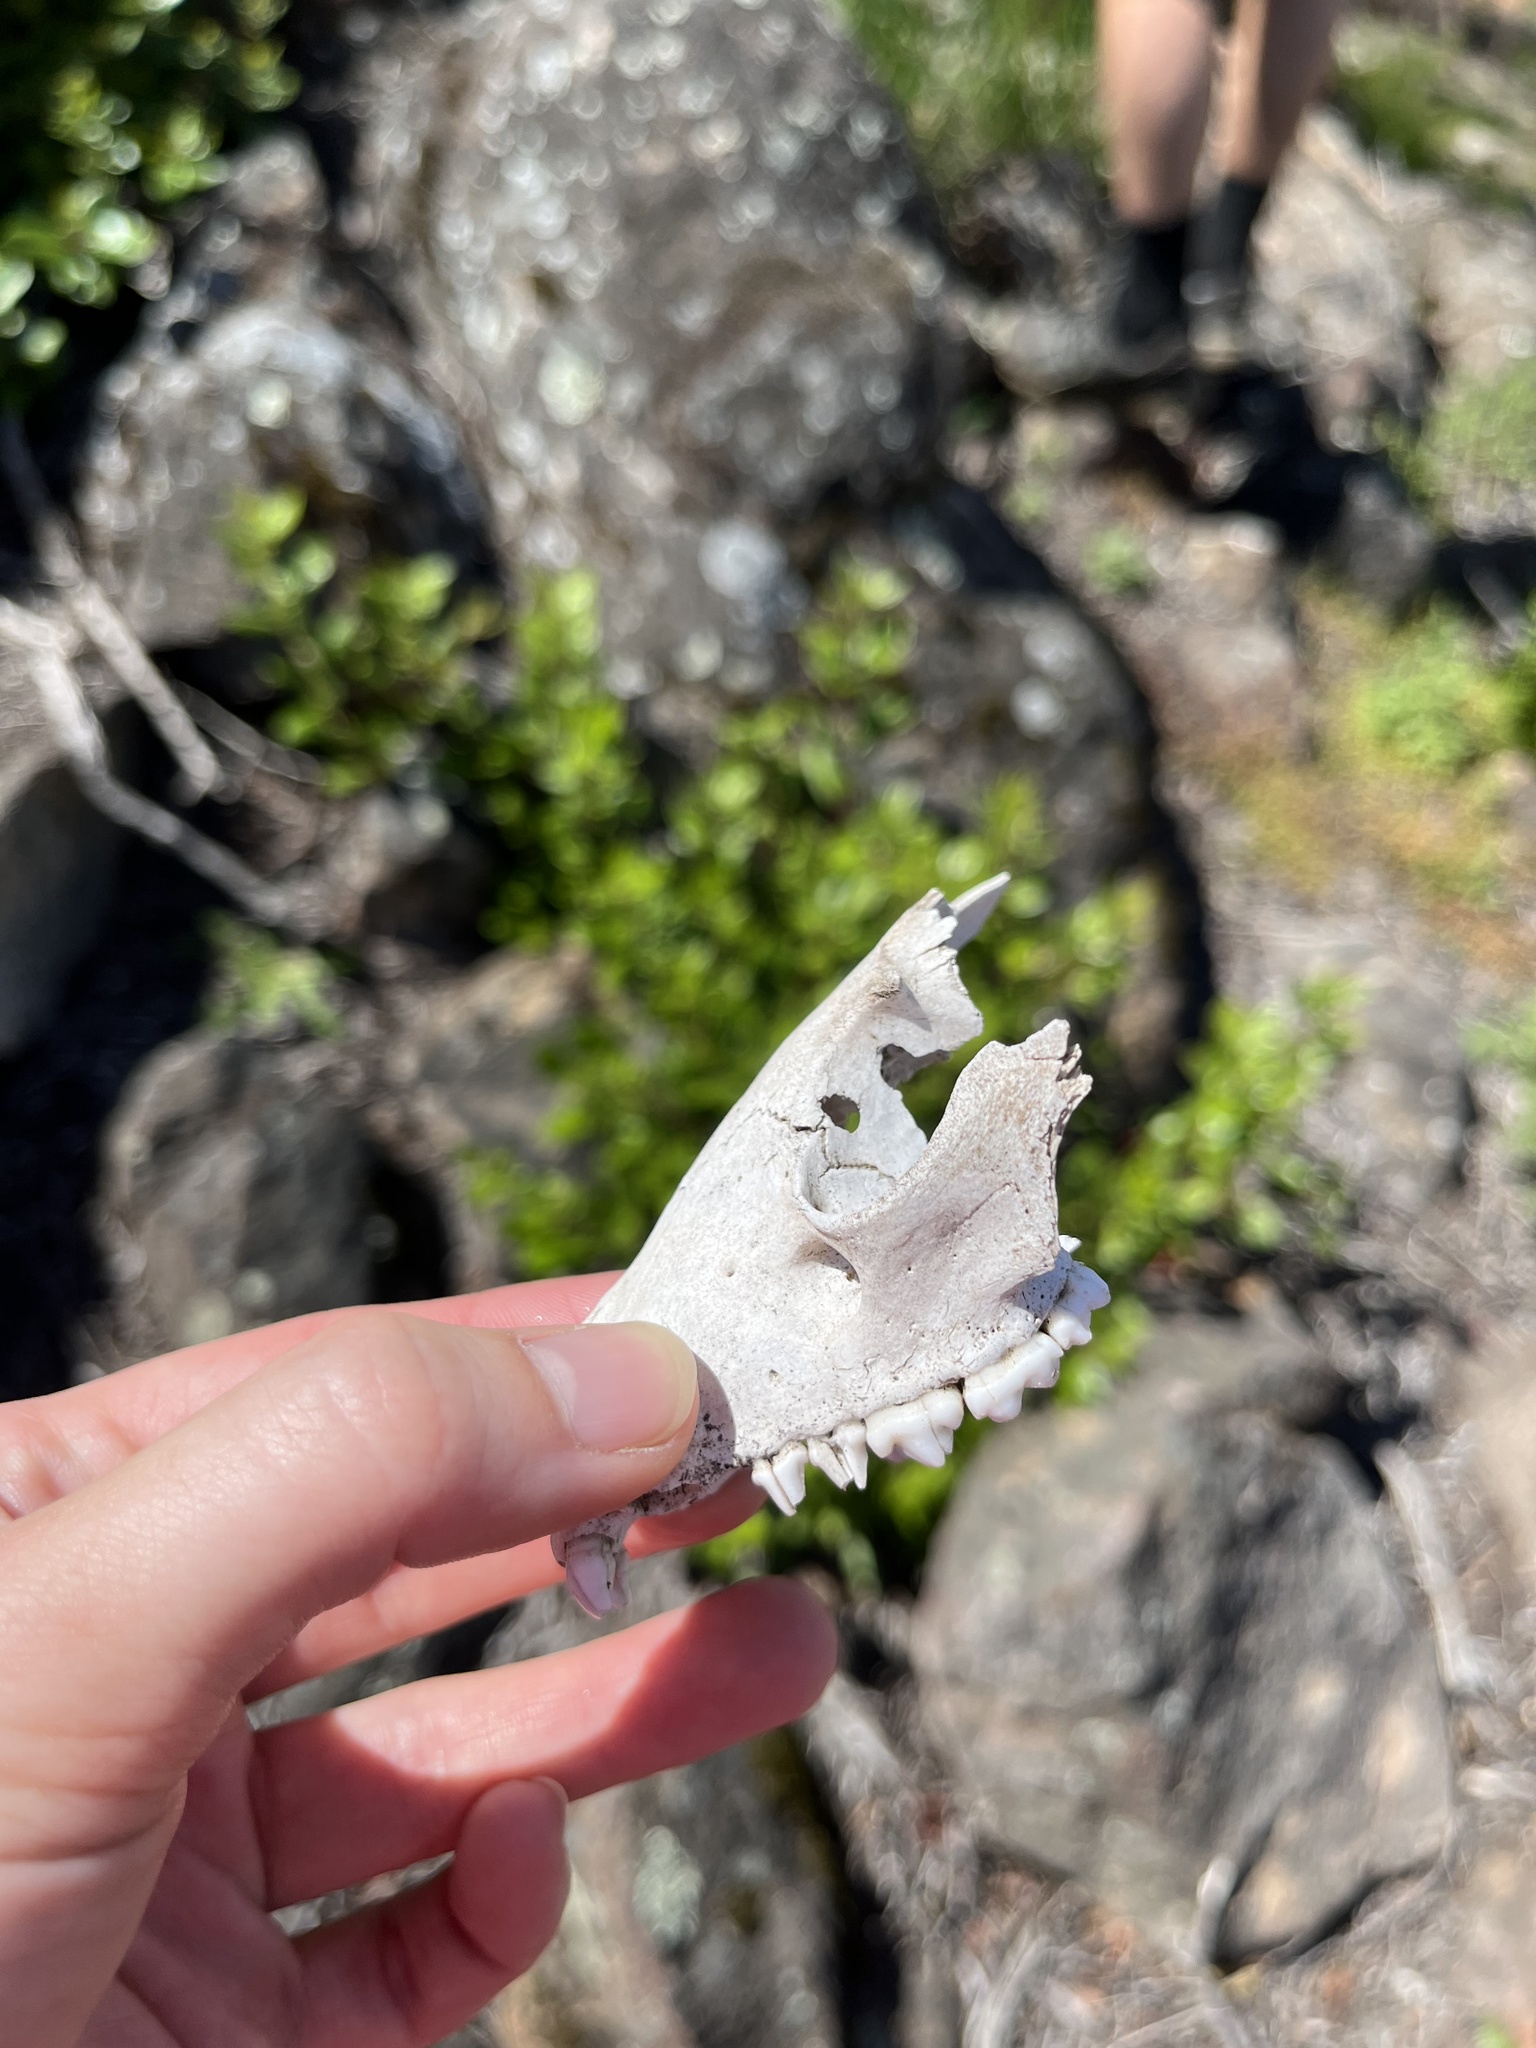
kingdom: Animalia
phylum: Chordata
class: Mammalia
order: Carnivora
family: Procyonidae
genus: Procyon
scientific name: Procyon lotor
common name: Raccoon
